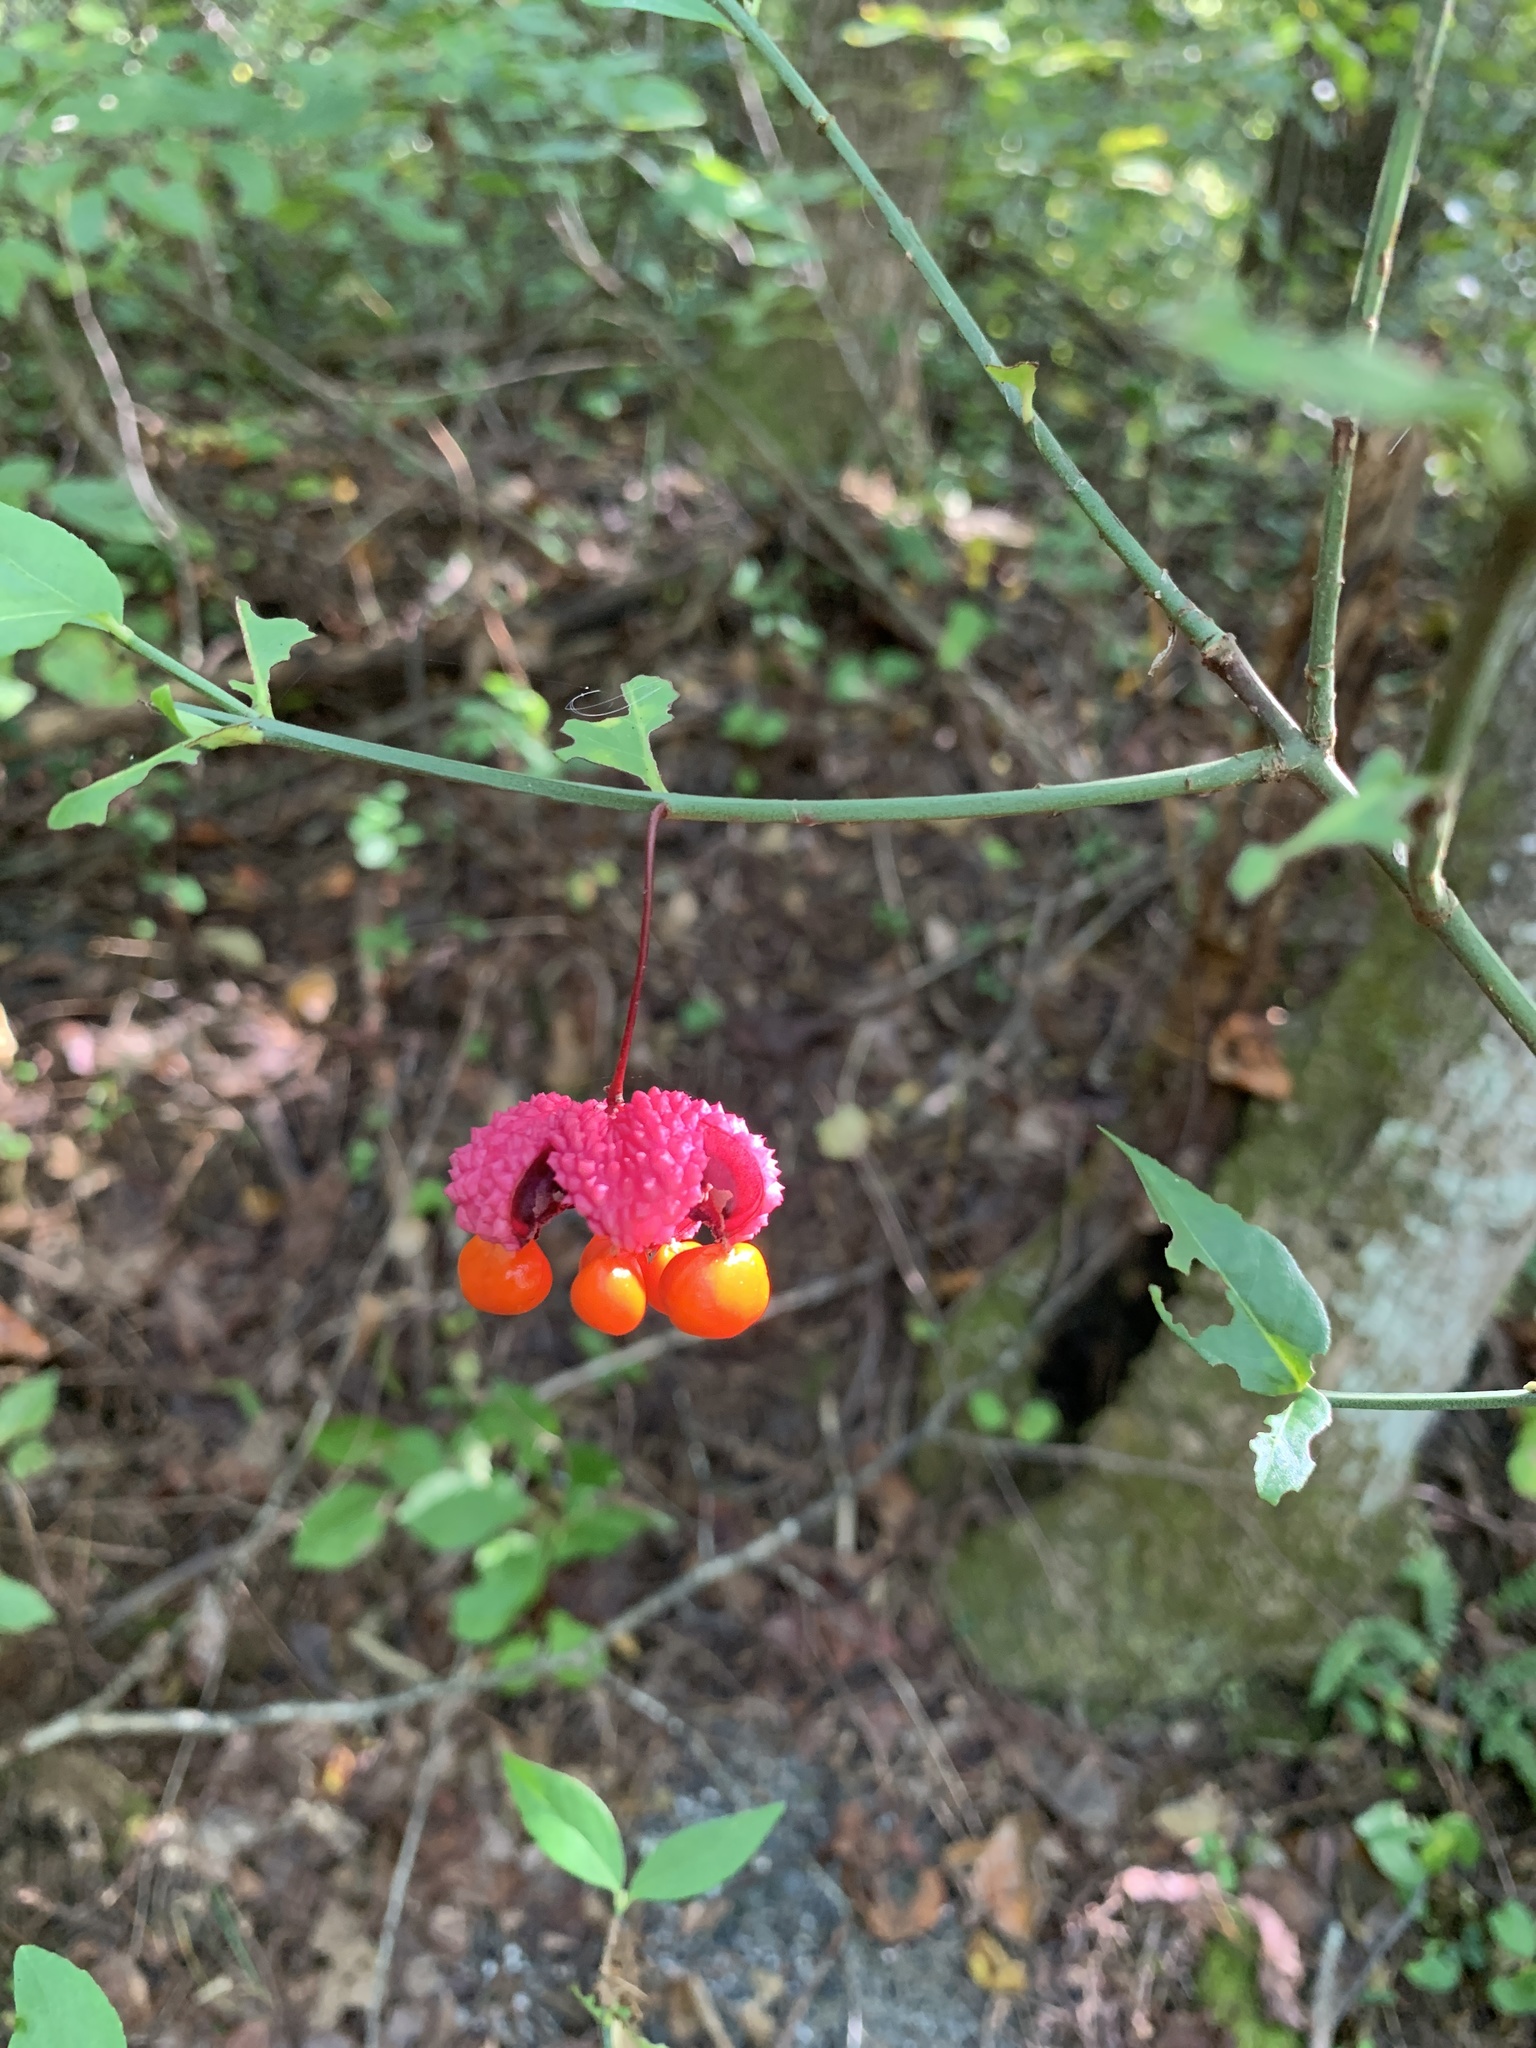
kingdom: Plantae
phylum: Tracheophyta
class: Magnoliopsida
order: Celastrales
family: Celastraceae
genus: Euonymus
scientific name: Euonymus americanus
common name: Bursting-heart
